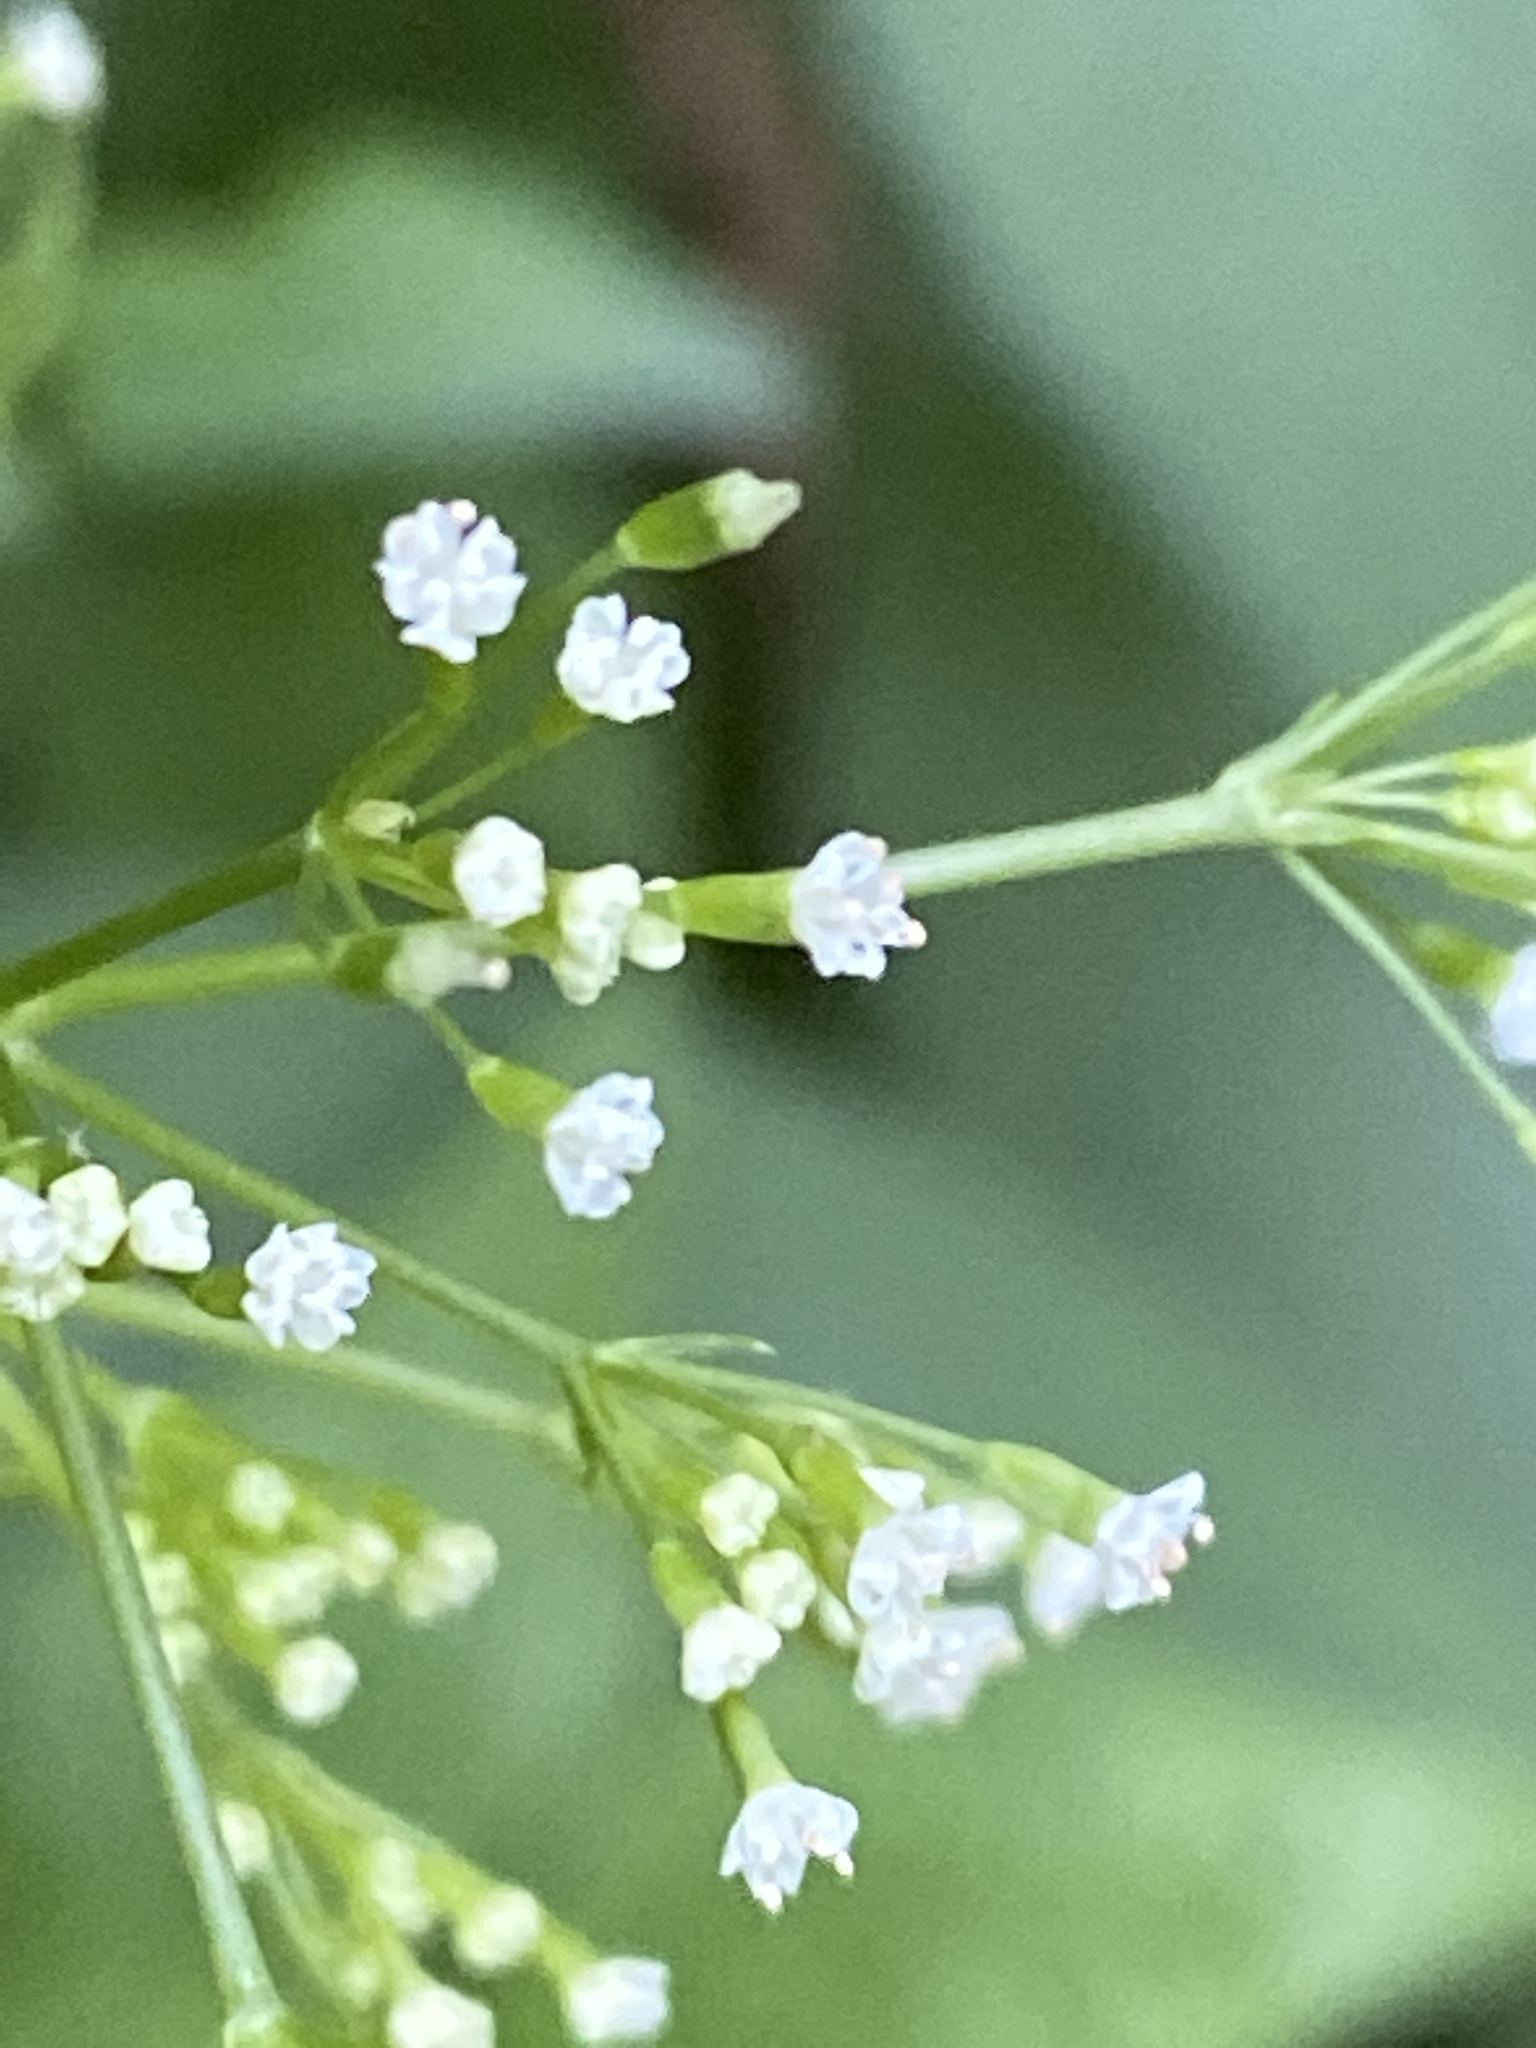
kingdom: Plantae
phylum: Tracheophyta
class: Magnoliopsida
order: Apiales
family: Apiaceae
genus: Cryptotaenia
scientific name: Cryptotaenia canadensis
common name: Honewort
